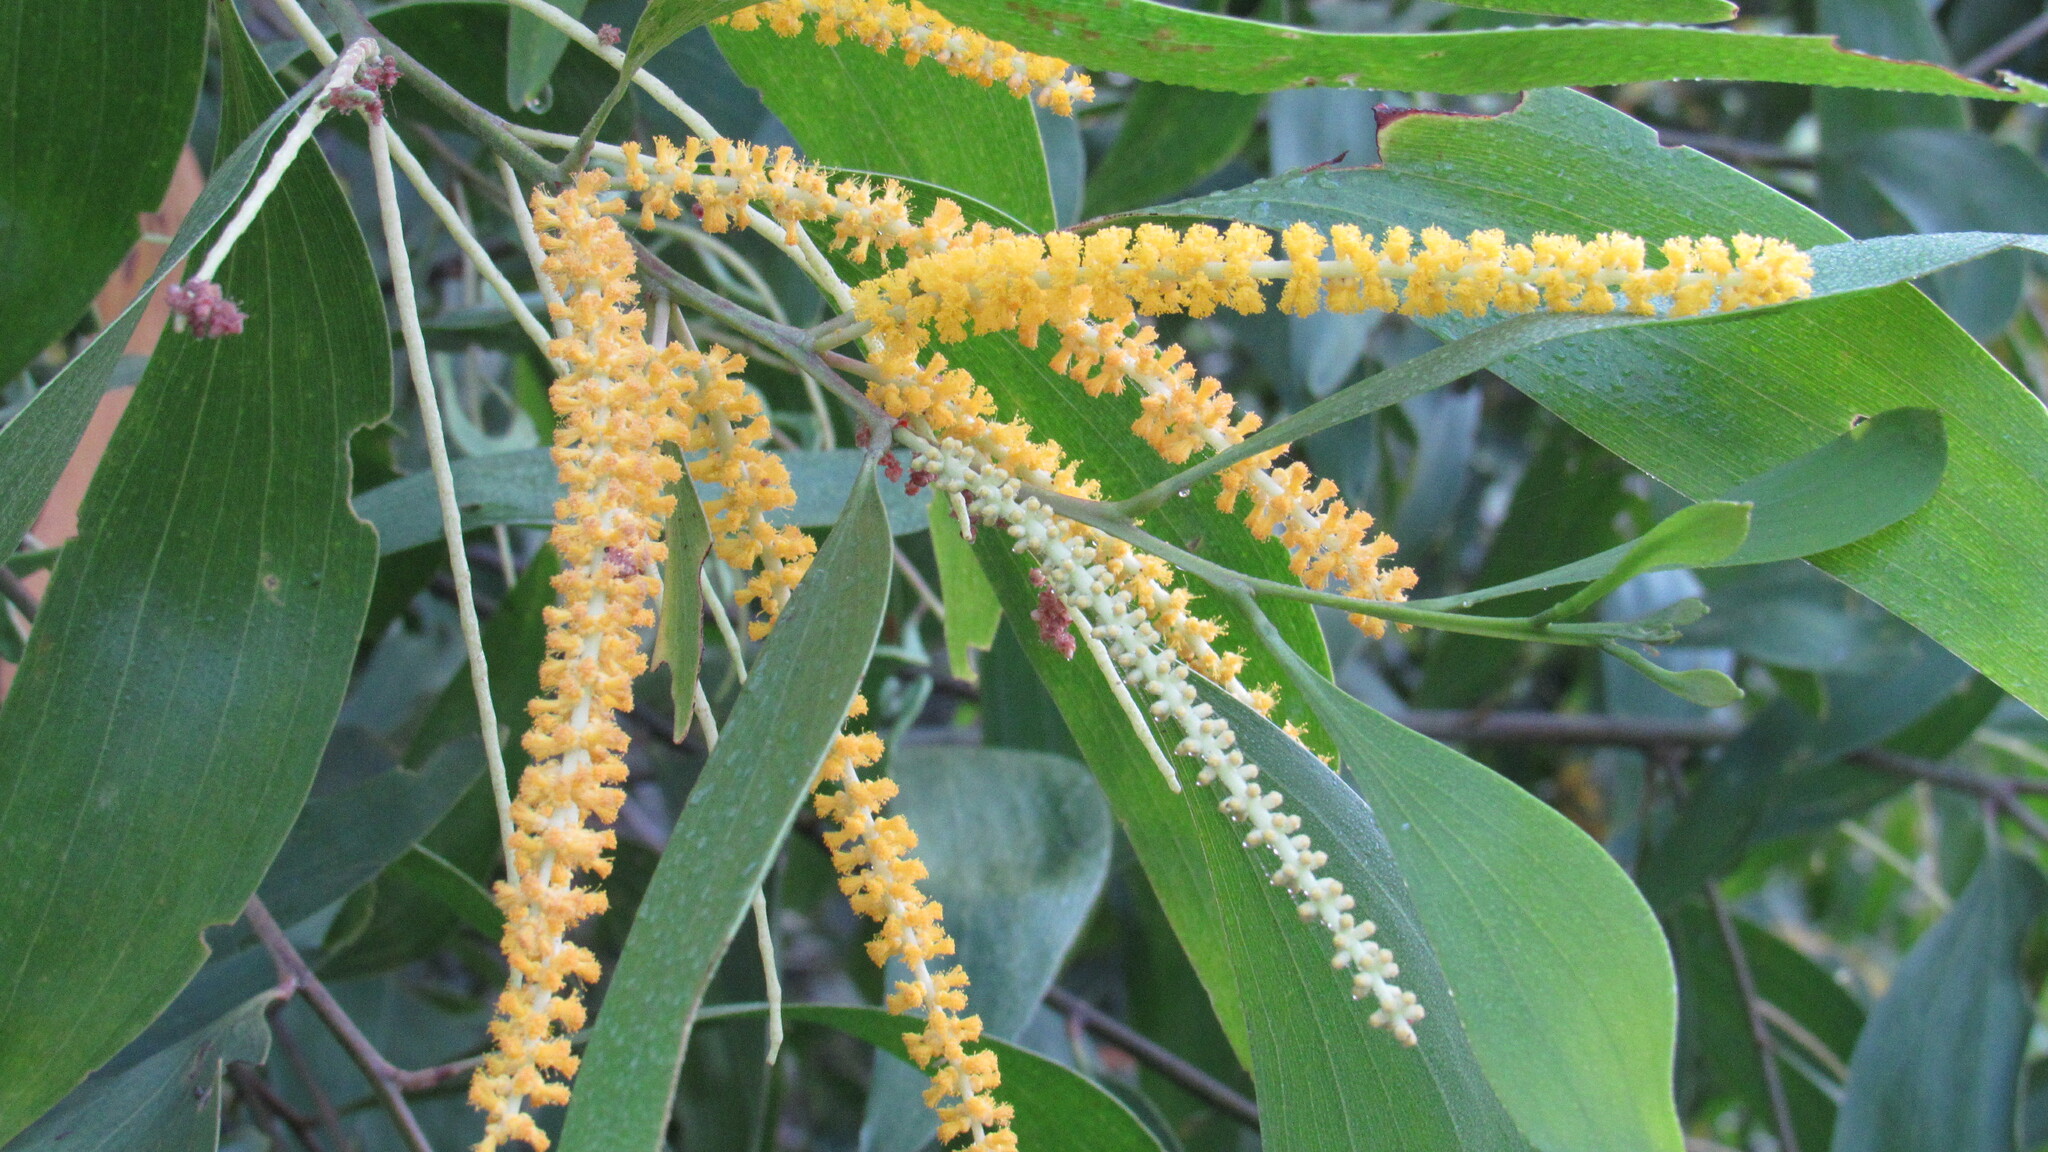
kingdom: Plantae
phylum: Tracheophyta
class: Magnoliopsida
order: Fabales
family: Fabaceae
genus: Acacia
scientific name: Acacia auriculiformis
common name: Earleaf acacia
